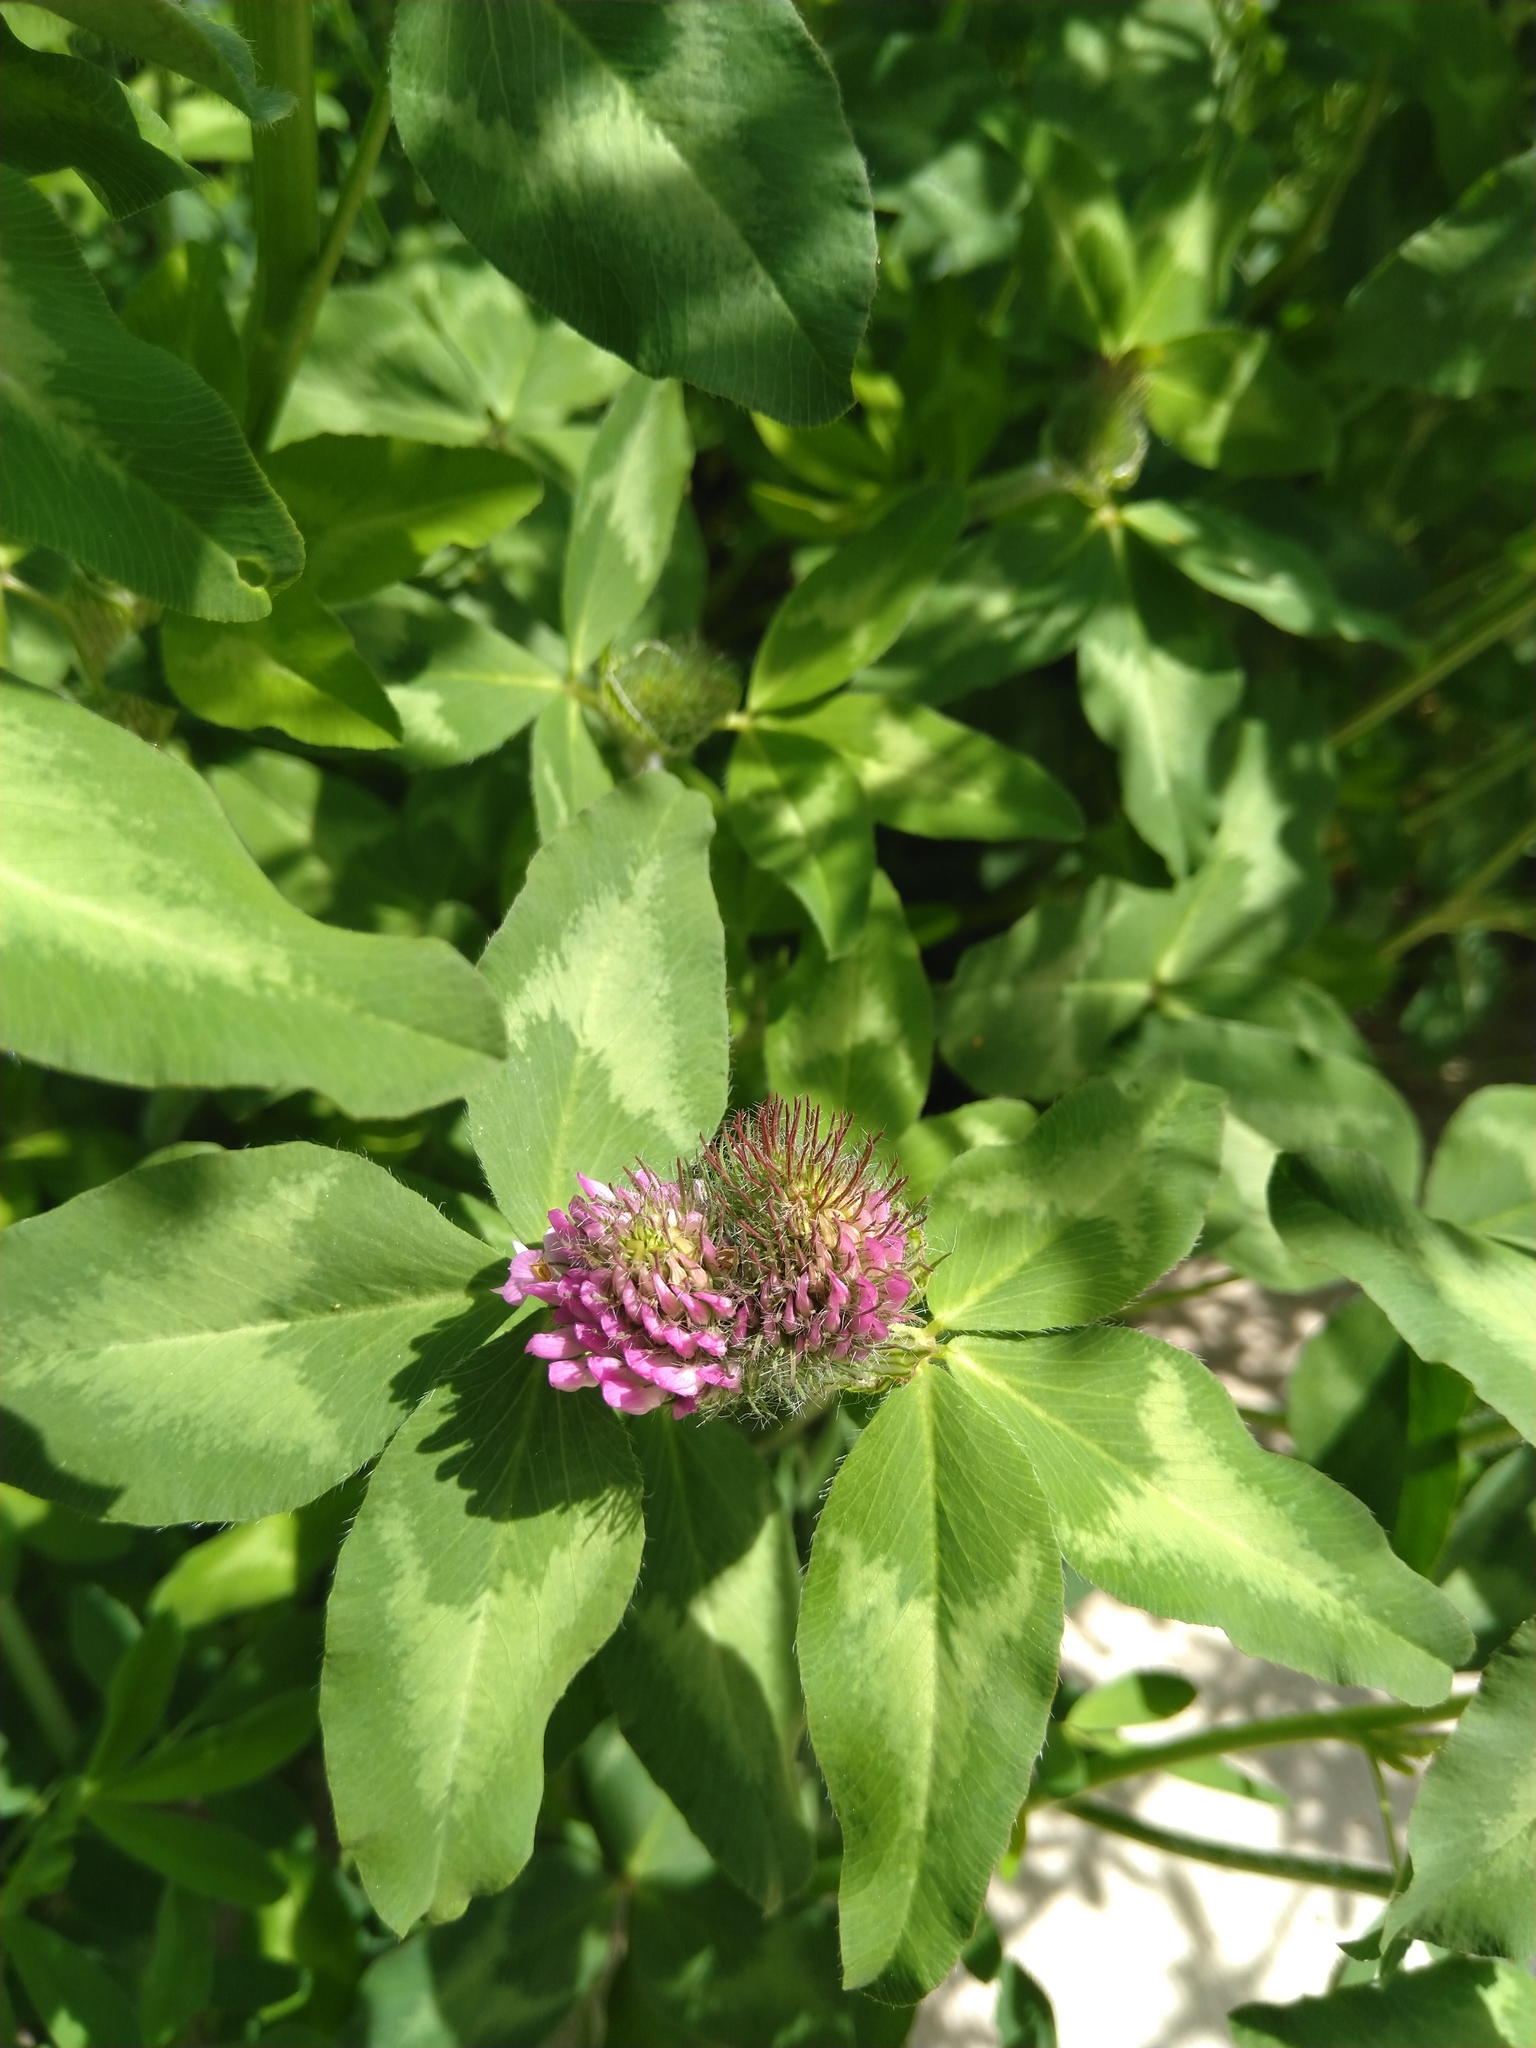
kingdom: Plantae
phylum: Tracheophyta
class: Magnoliopsida
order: Fabales
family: Fabaceae
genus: Trifolium
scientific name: Trifolium pratense
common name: Red clover
